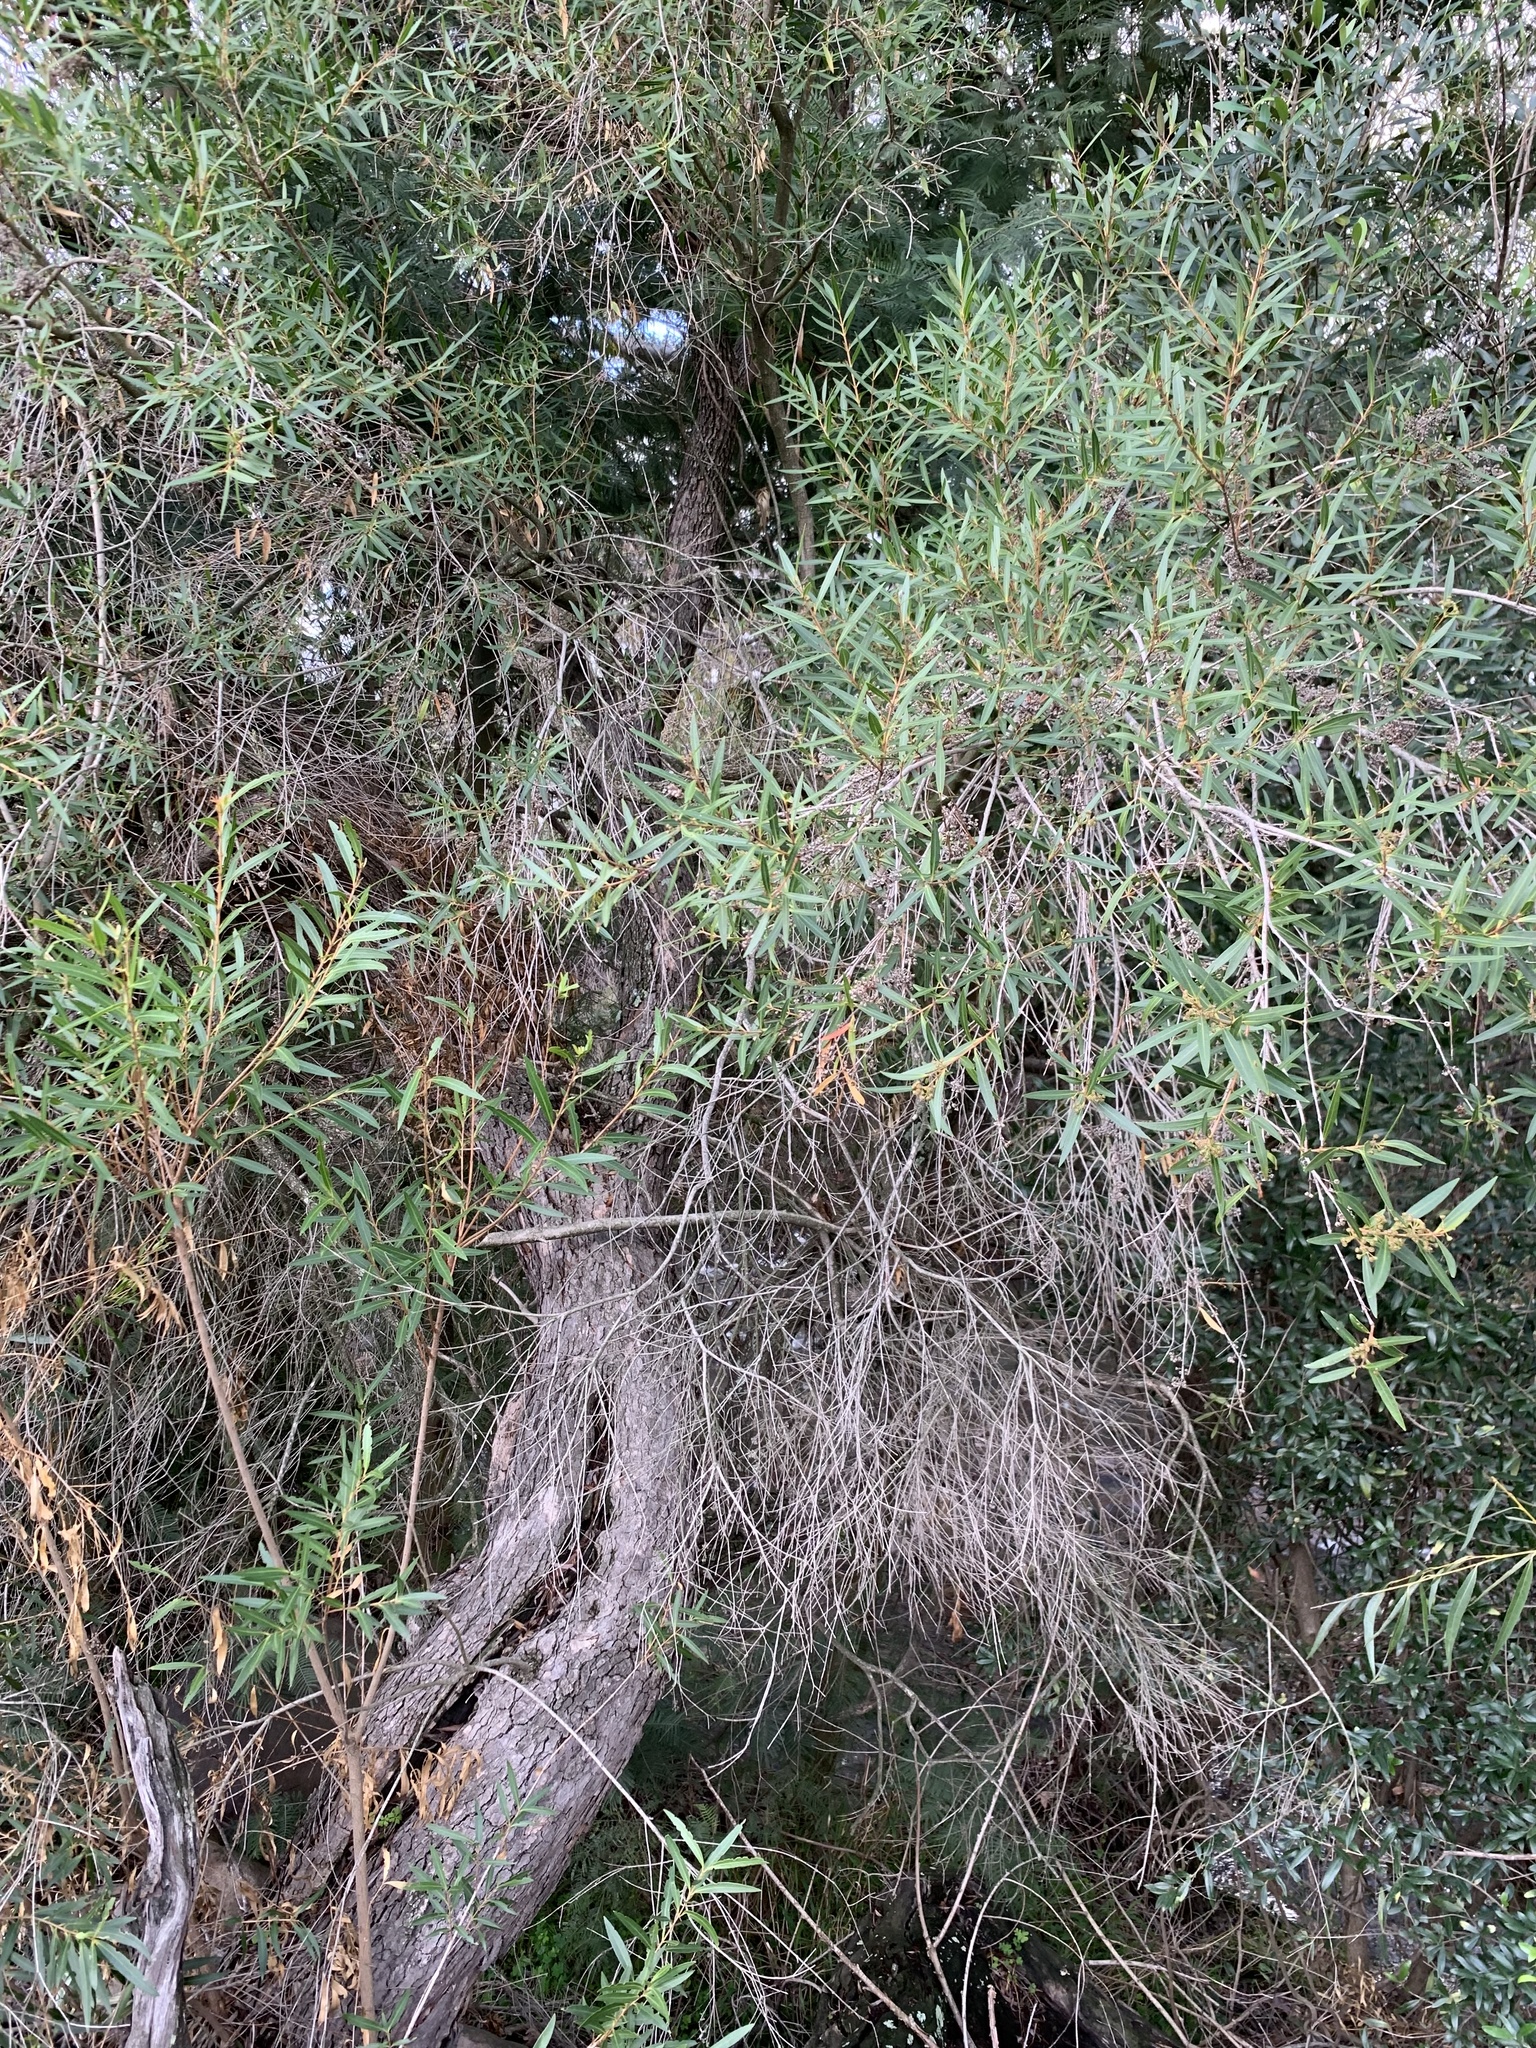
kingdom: Plantae
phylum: Tracheophyta
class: Magnoliopsida
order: Myrtales
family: Myrtaceae
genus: Callistemon
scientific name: Callistemon lanceolatus
